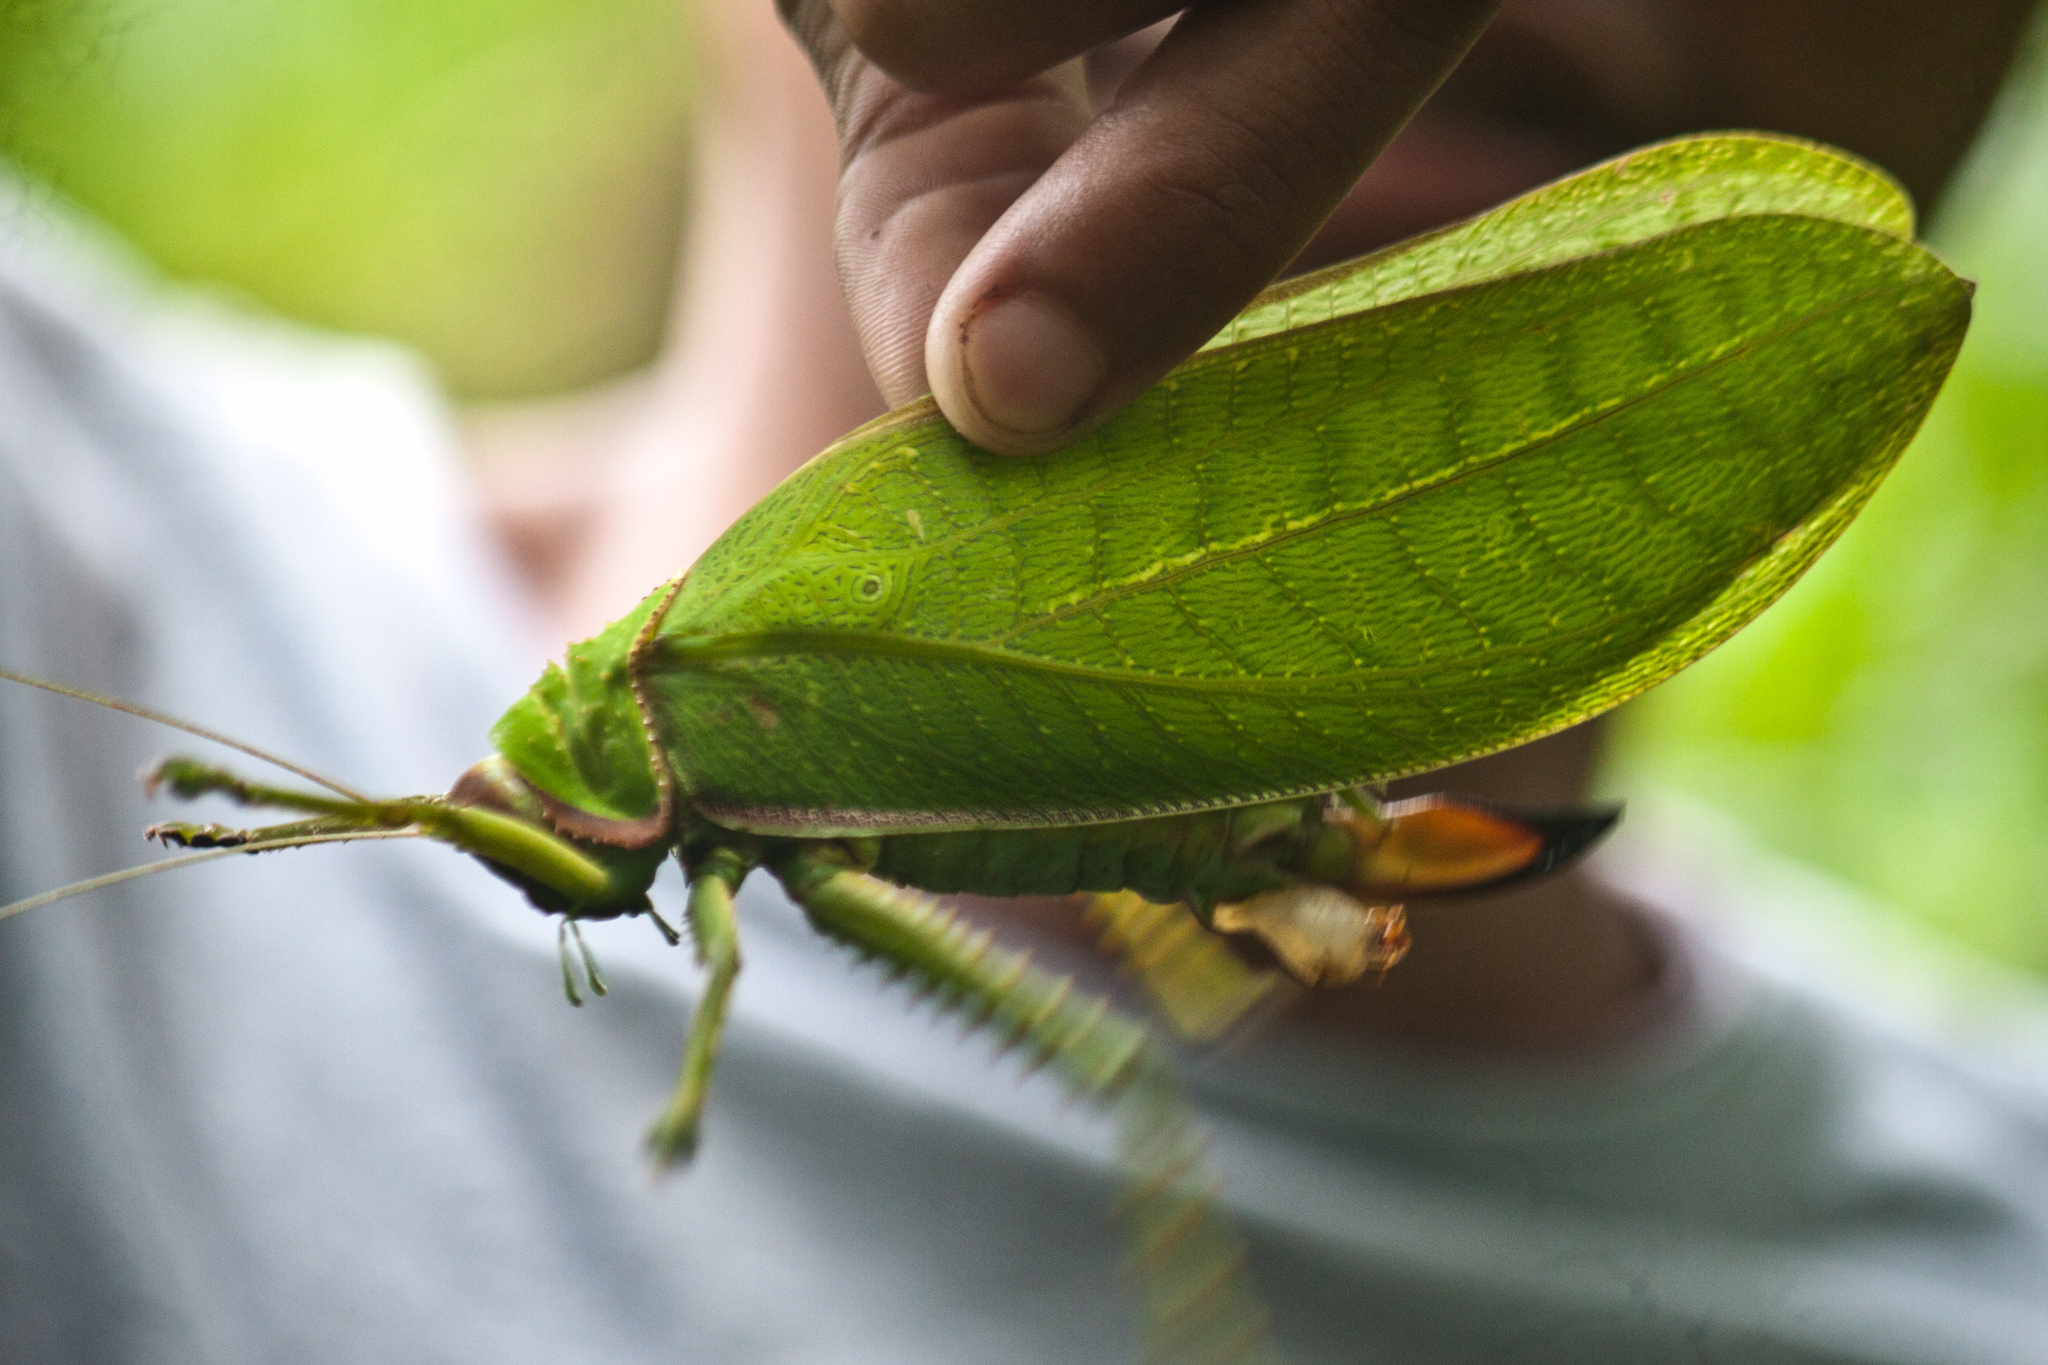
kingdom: Animalia
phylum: Arthropoda
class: Insecta
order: Orthoptera
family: Tettigoniidae
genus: Pseudophyllus
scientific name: Pseudophyllus titan
